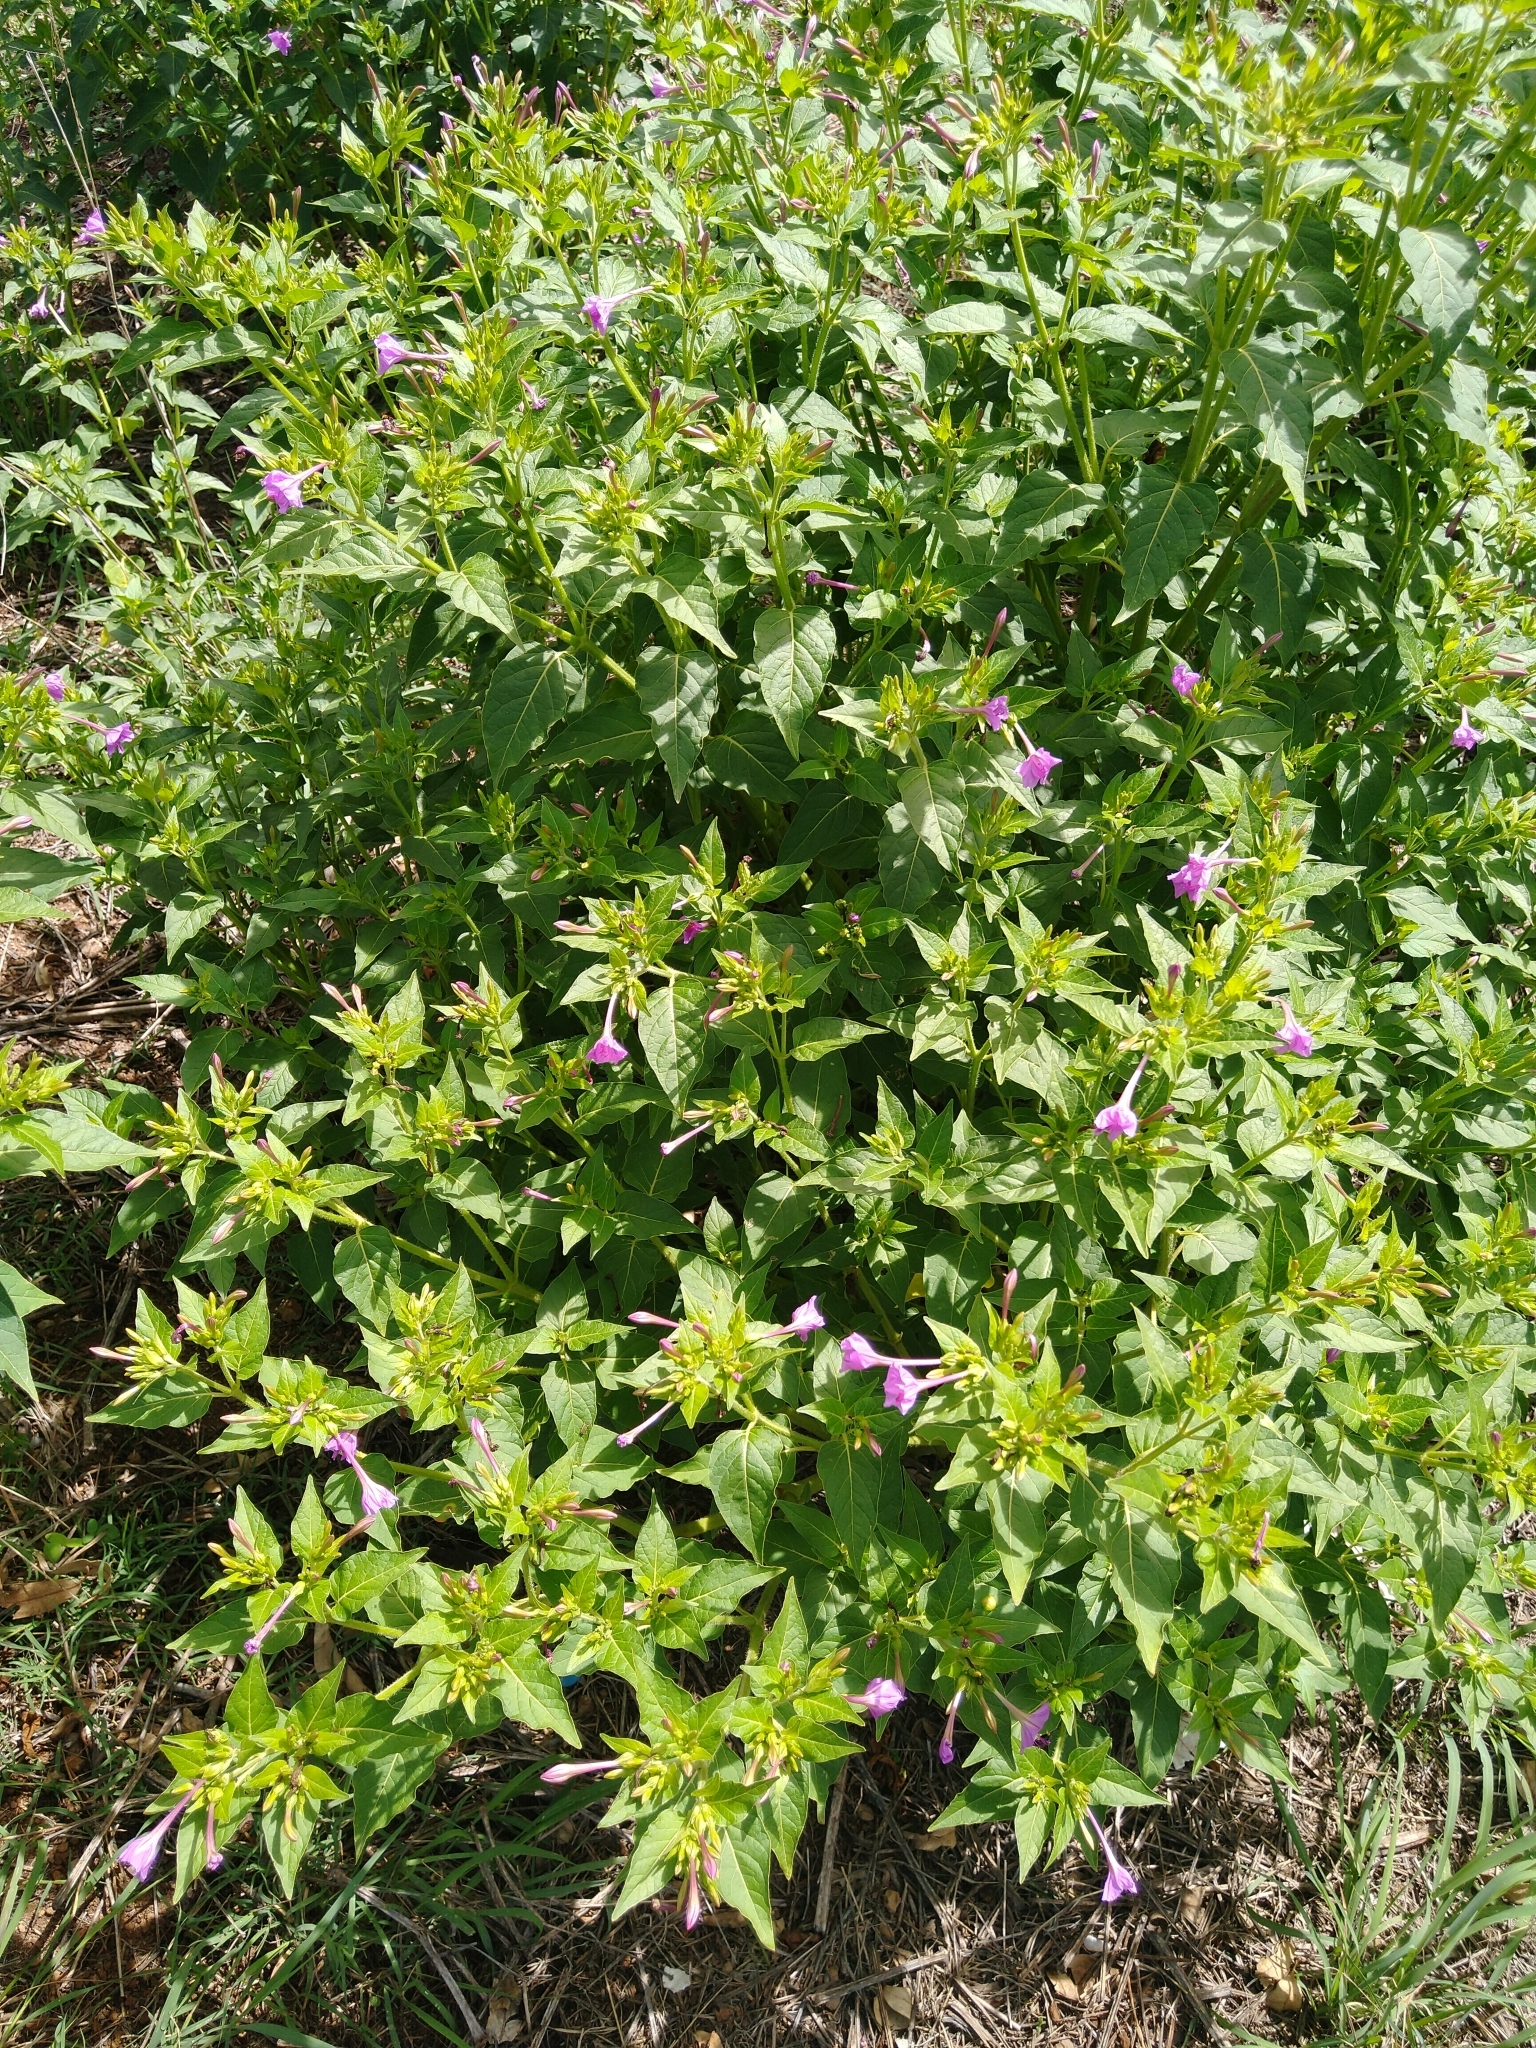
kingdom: Plantae
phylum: Tracheophyta
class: Magnoliopsida
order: Caryophyllales
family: Nyctaginaceae
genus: Mirabilis
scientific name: Mirabilis jalapa
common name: Marvel-of-peru
